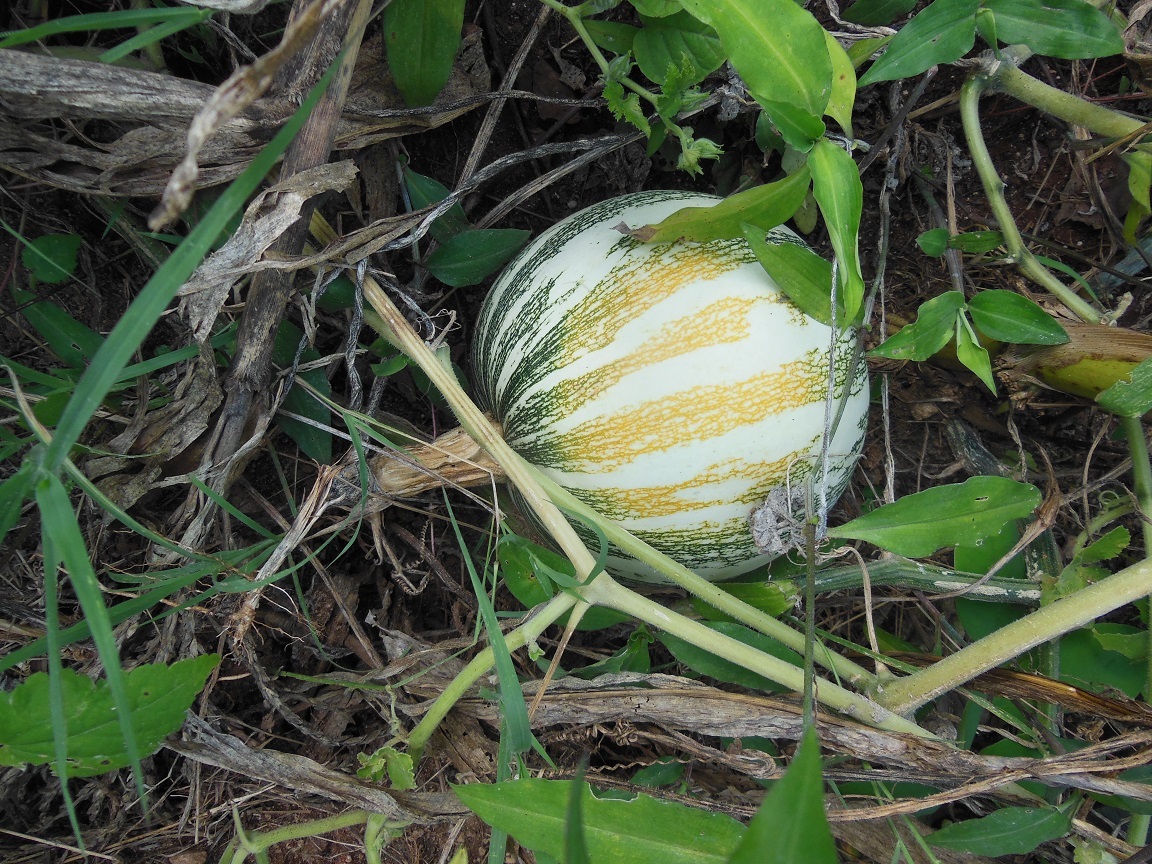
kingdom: Plantae
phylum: Tracheophyta
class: Magnoliopsida
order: Cucurbitales
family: Cucurbitaceae
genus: Cucurbita
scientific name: Cucurbita moschata
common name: Squash / pumpkin
